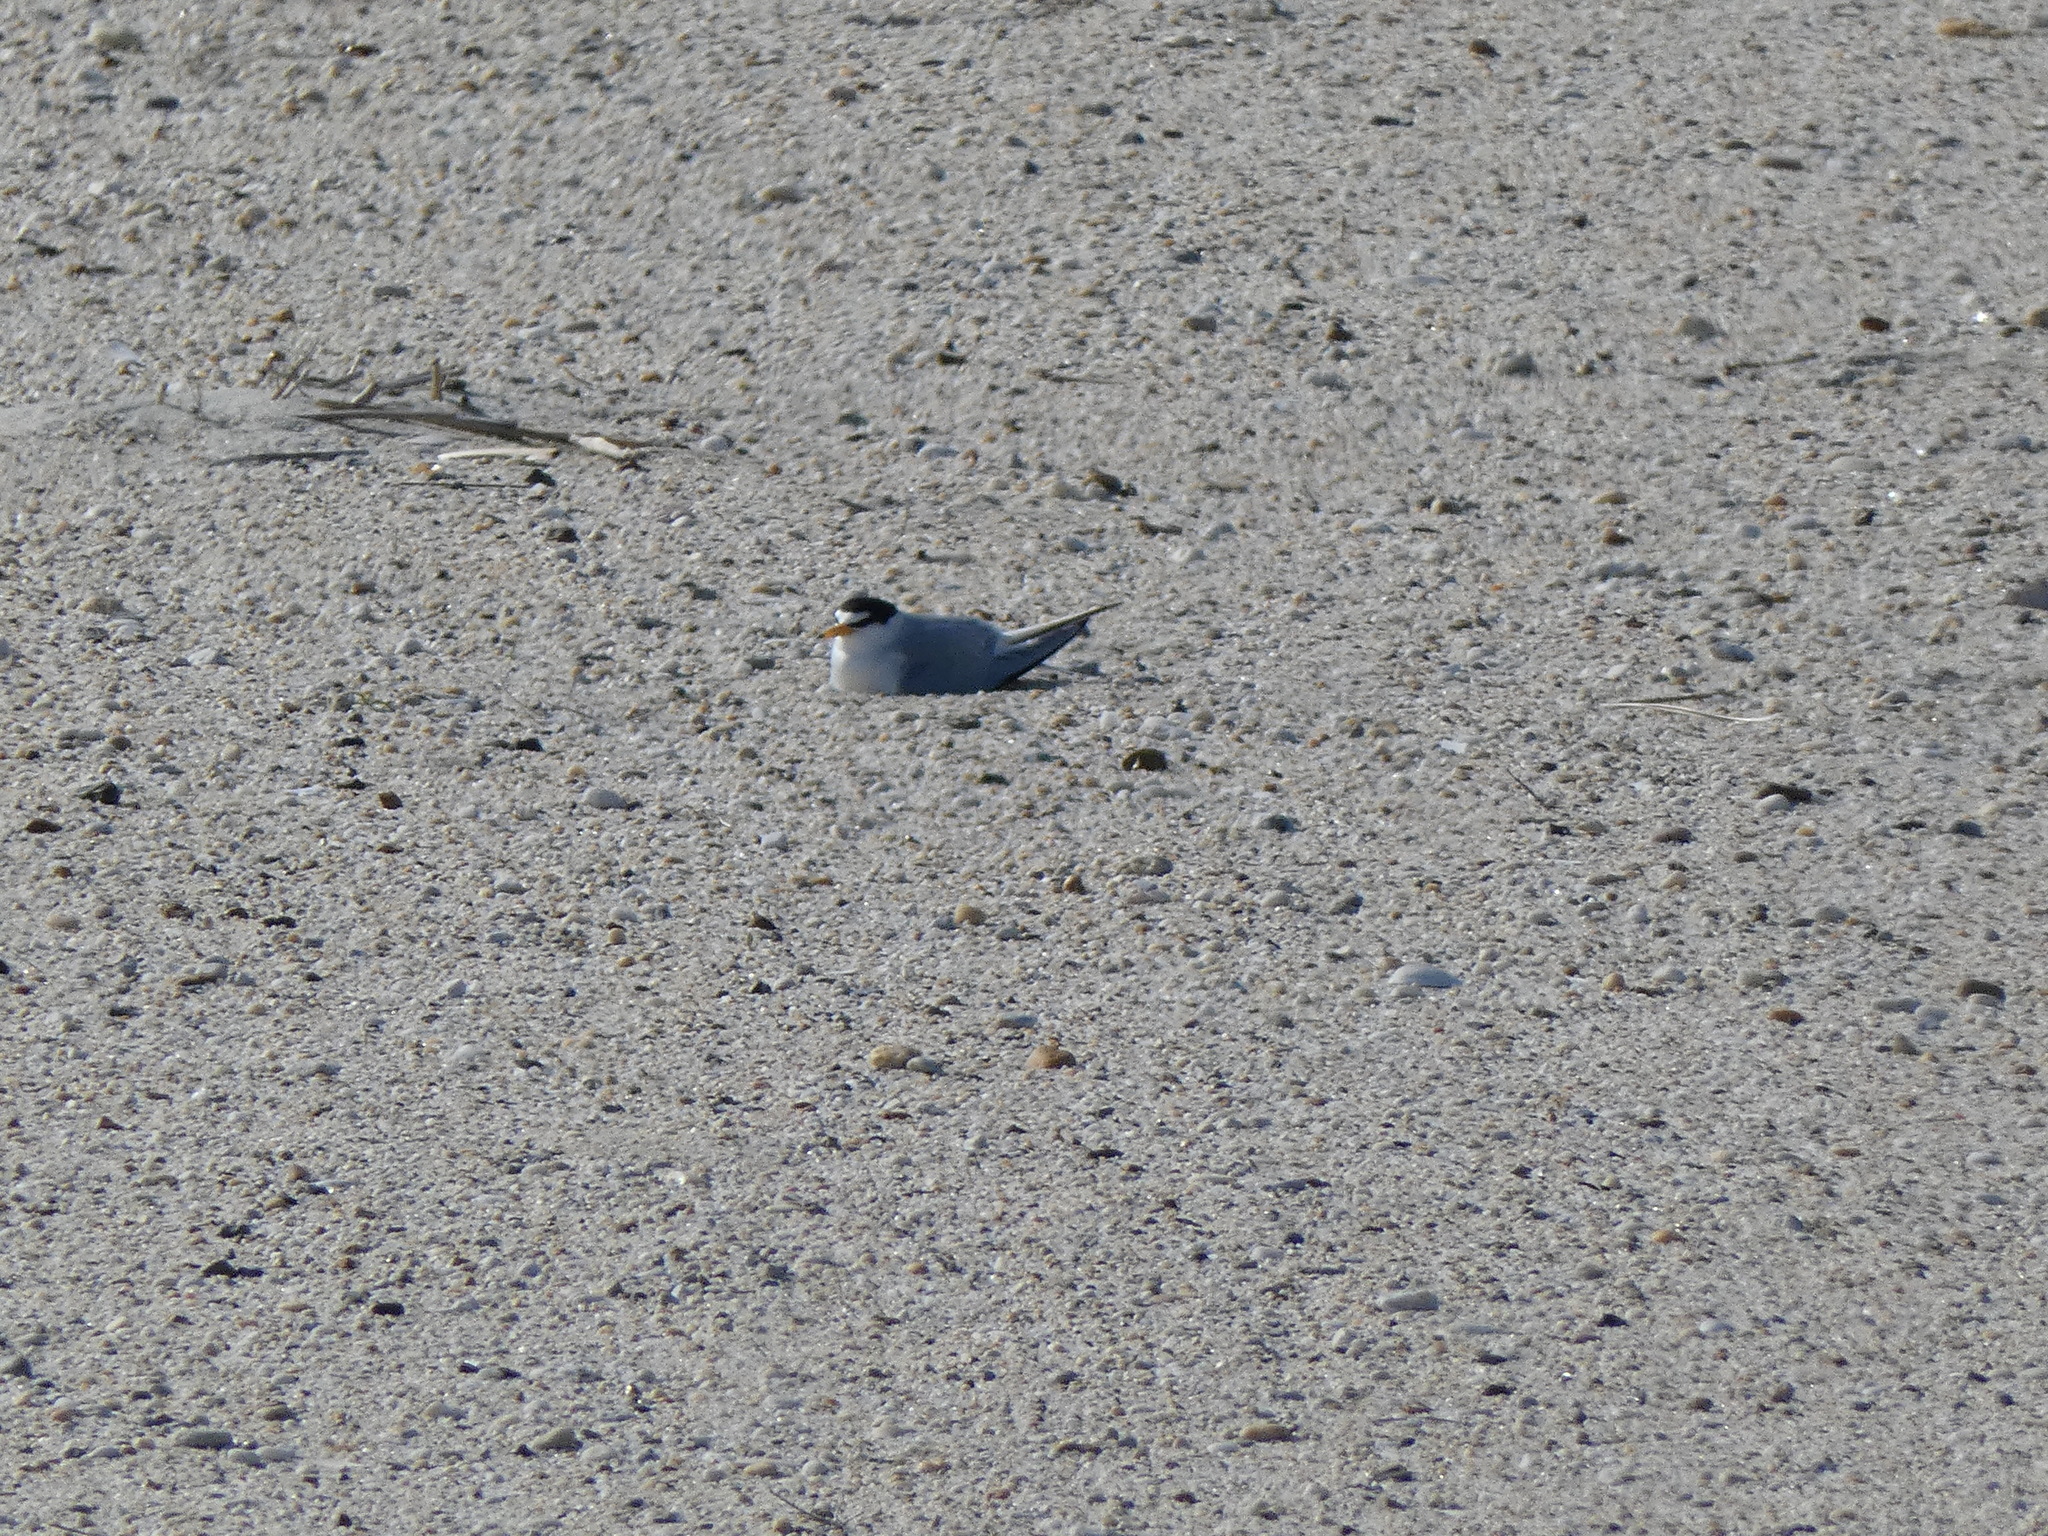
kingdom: Animalia
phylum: Chordata
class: Aves
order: Charadriiformes
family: Laridae
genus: Sternula
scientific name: Sternula antillarum
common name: Least tern
